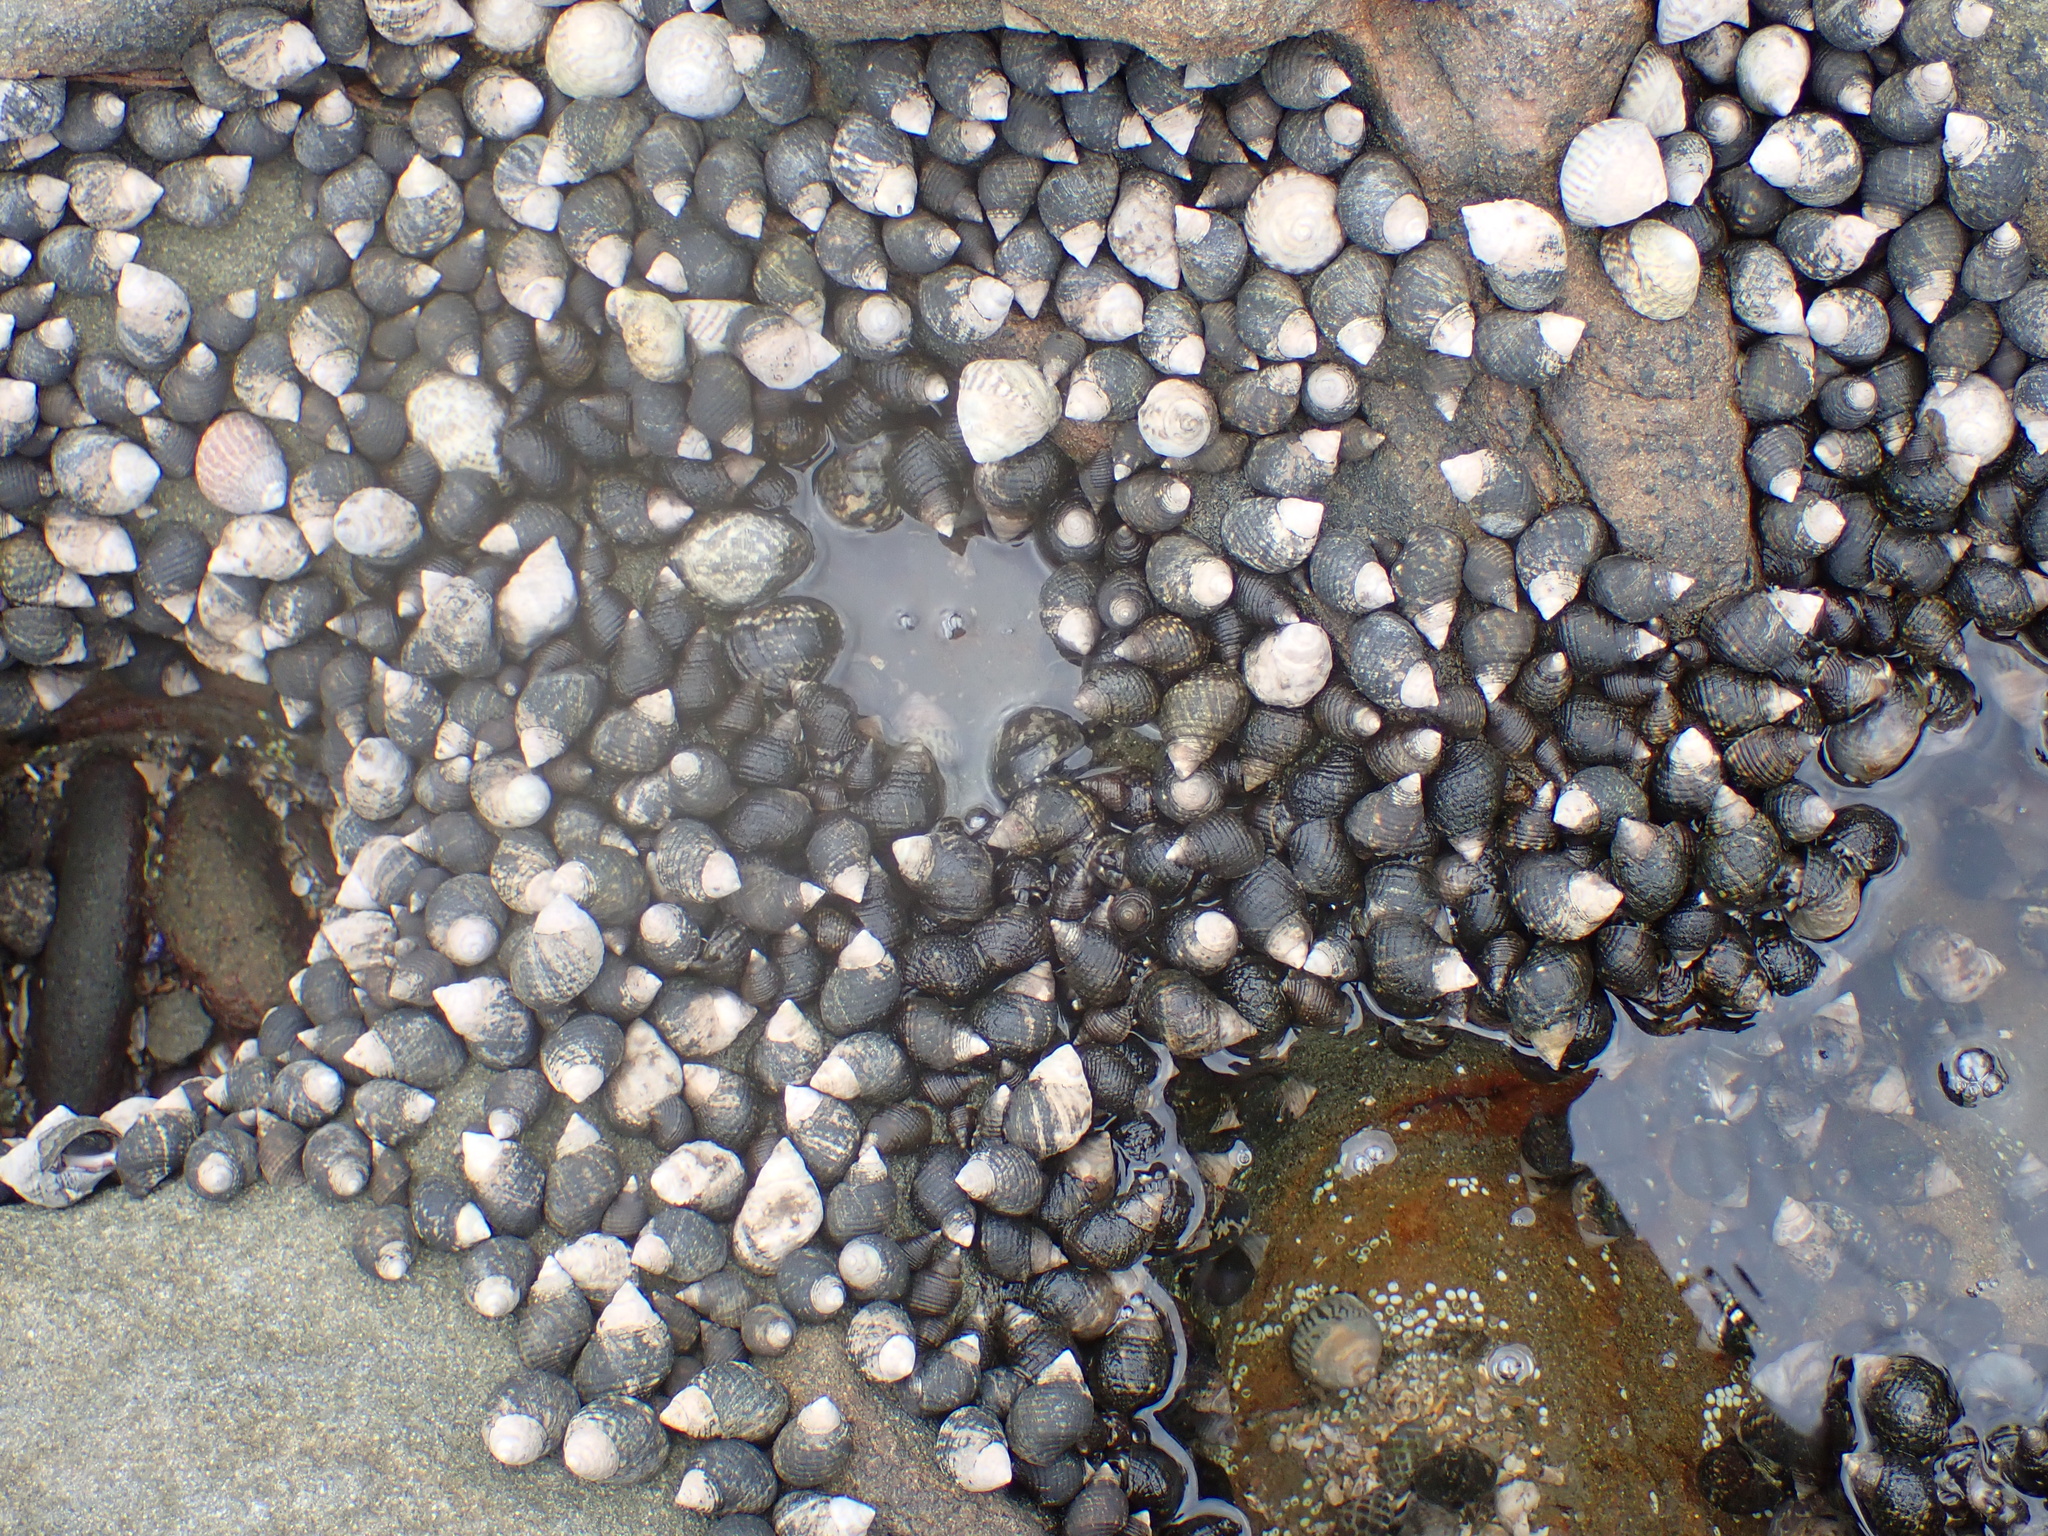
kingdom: Animalia
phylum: Mollusca
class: Gastropoda
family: Planaxidae
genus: Planaxis
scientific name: Planaxis sulcatus
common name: Furrowed planaxis
